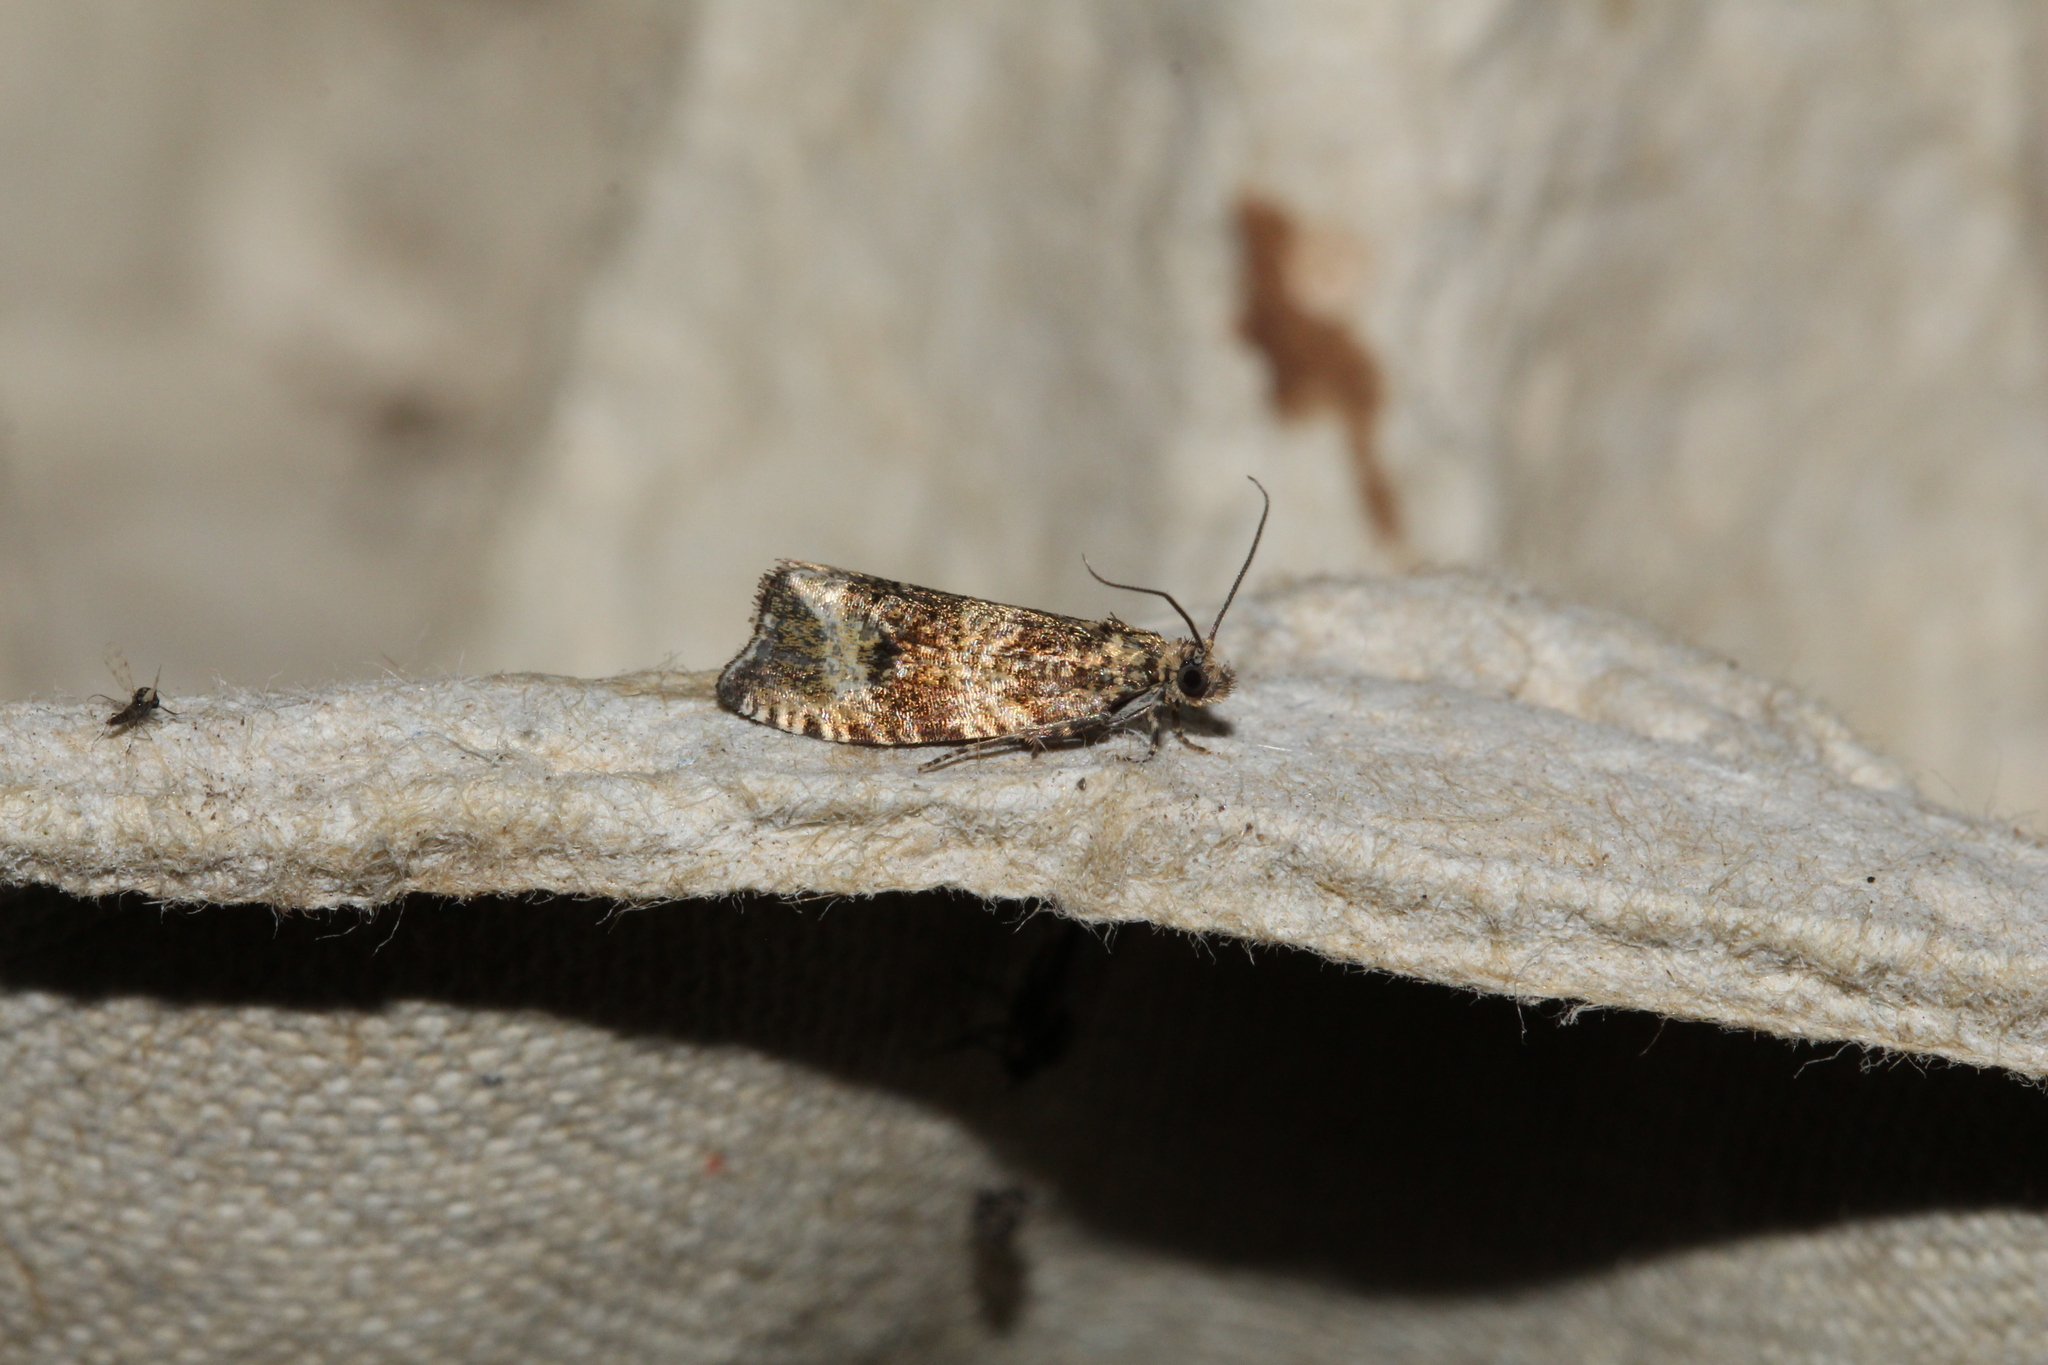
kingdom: Animalia
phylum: Arthropoda
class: Insecta
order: Lepidoptera
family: Tortricidae
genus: Syricoris
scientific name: Syricoris lacunana
